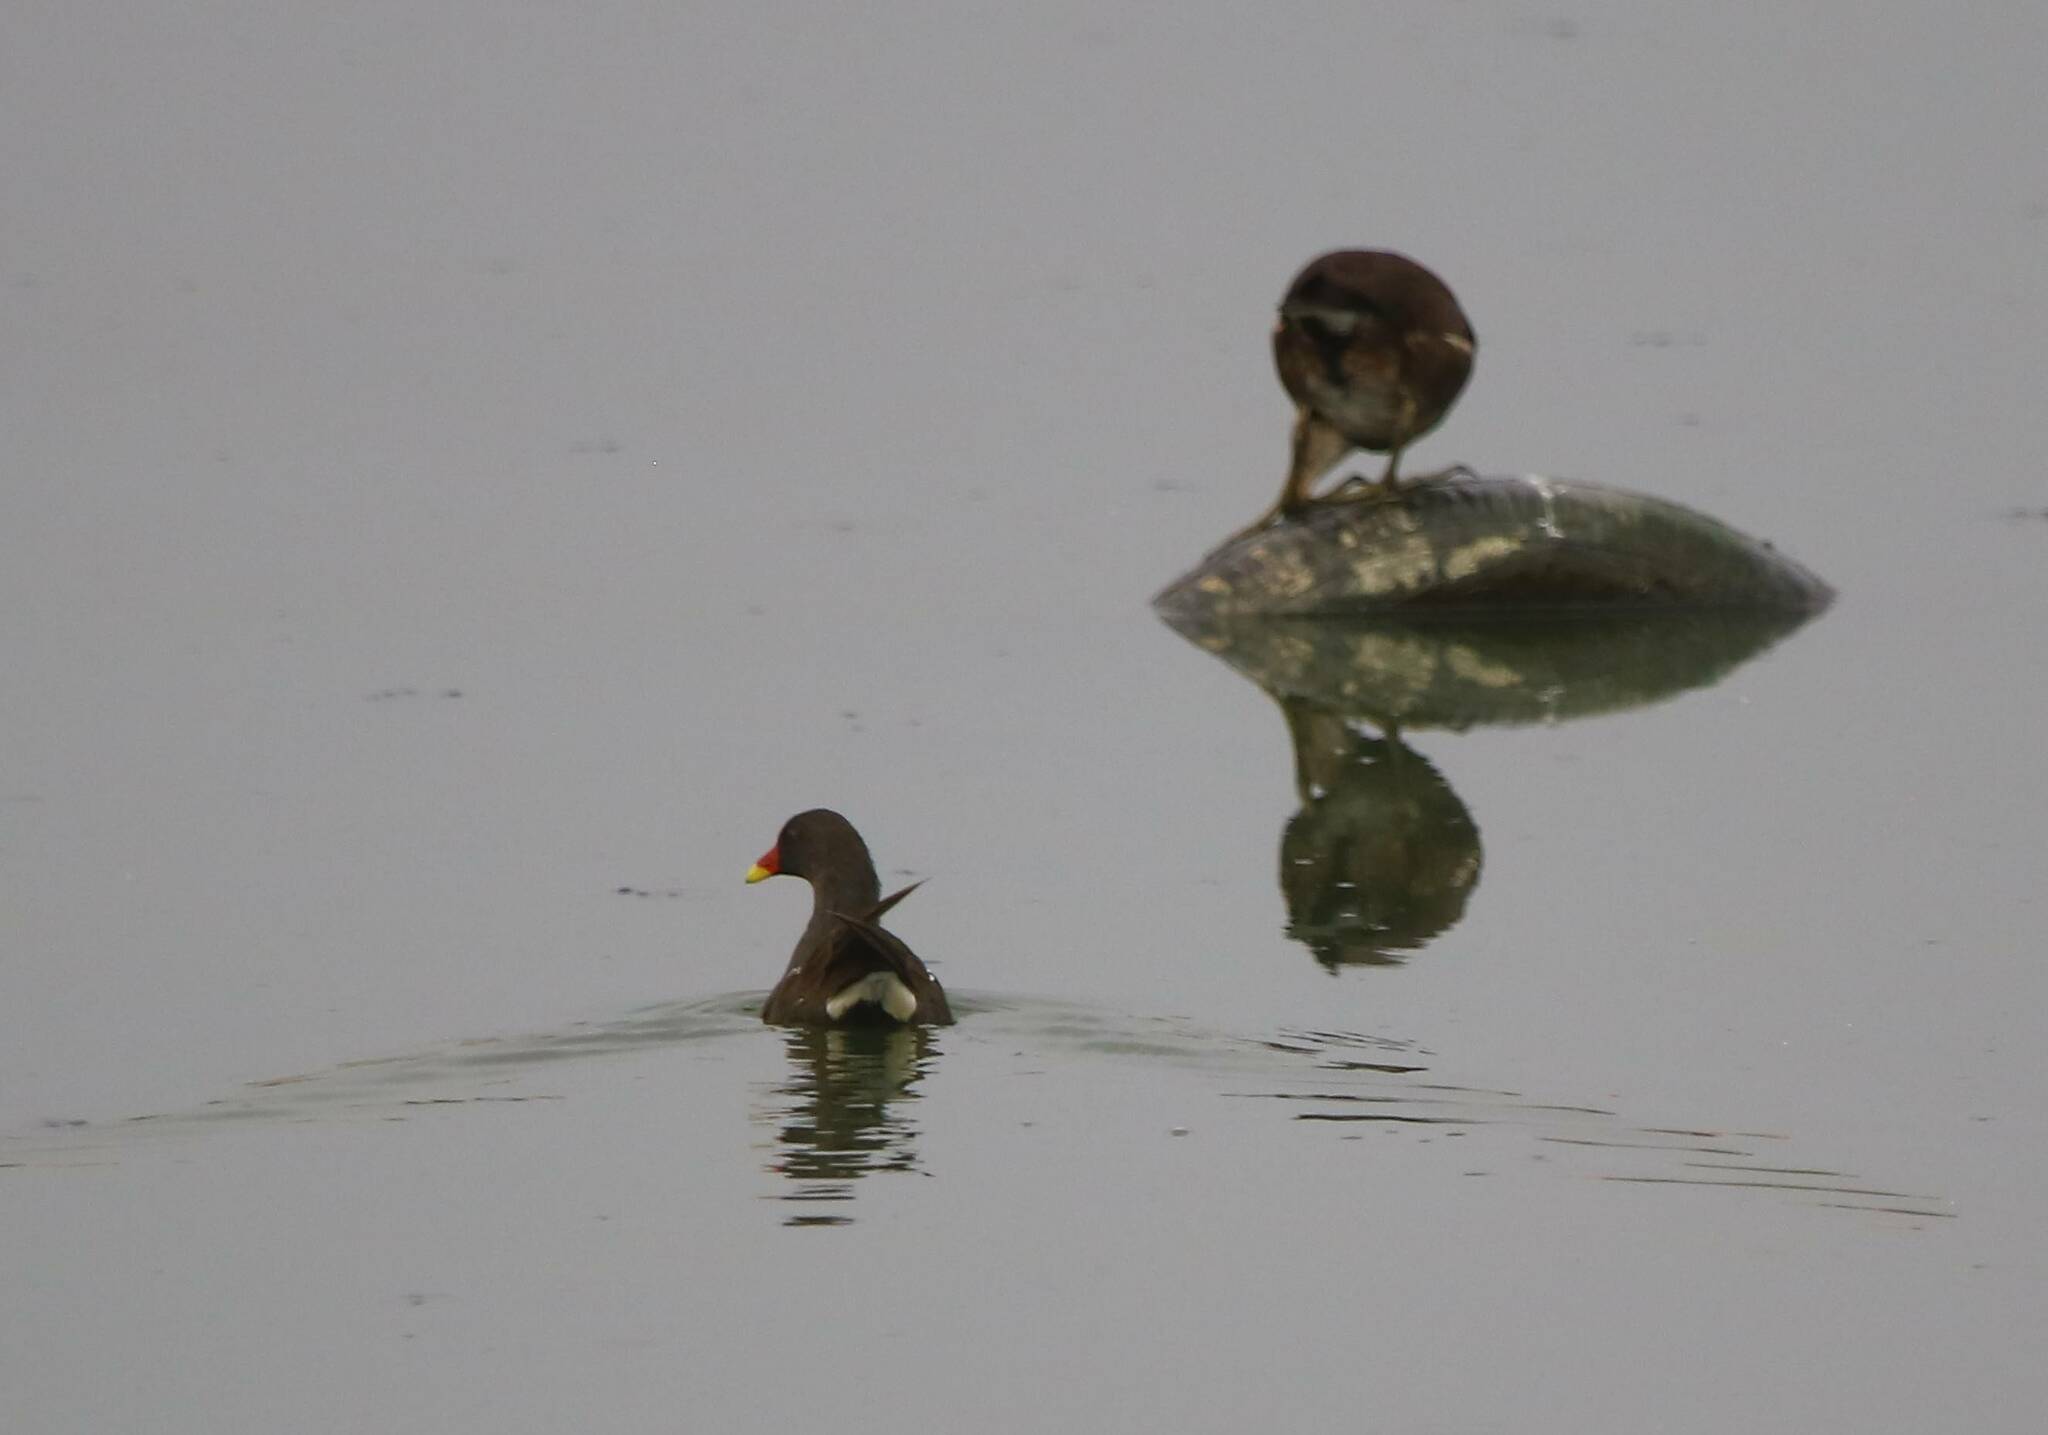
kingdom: Animalia
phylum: Chordata
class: Aves
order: Gruiformes
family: Rallidae
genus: Gallinula
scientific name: Gallinula chloropus
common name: Common moorhen
